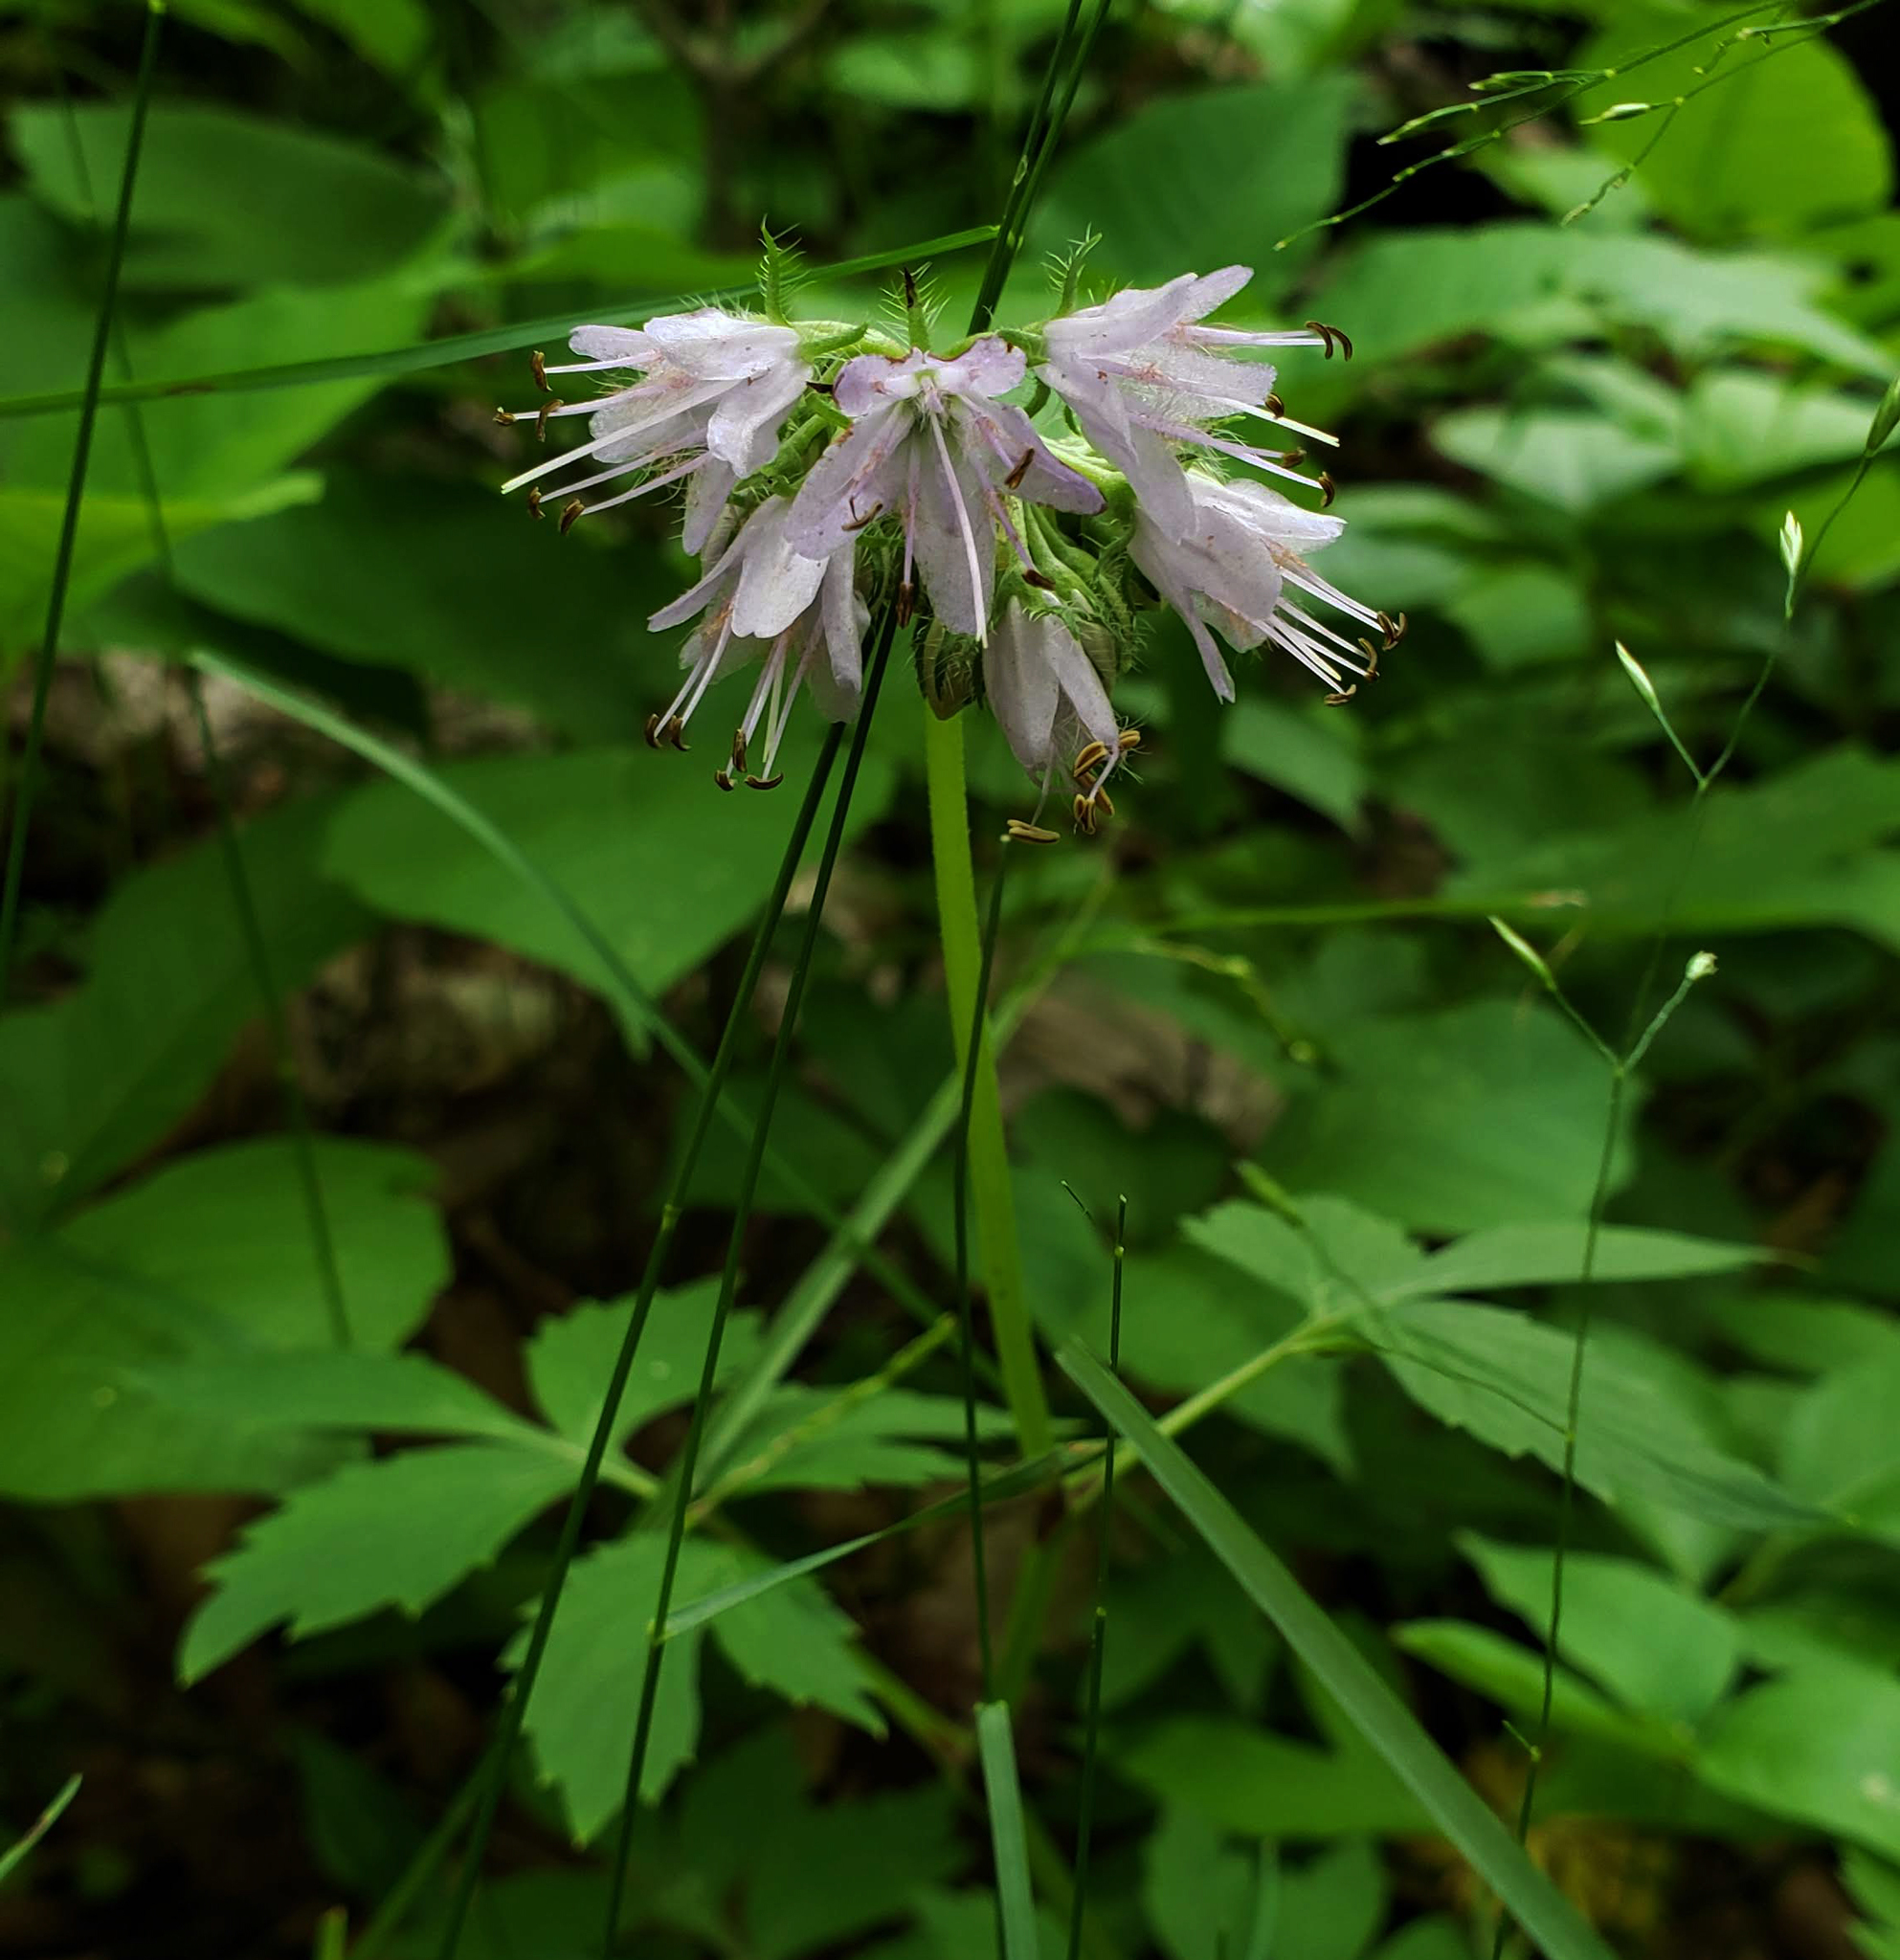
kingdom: Plantae
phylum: Tracheophyta
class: Magnoliopsida
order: Boraginales
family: Hydrophyllaceae
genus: Hydrophyllum
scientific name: Hydrophyllum virginianum
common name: Virginia waterleaf
